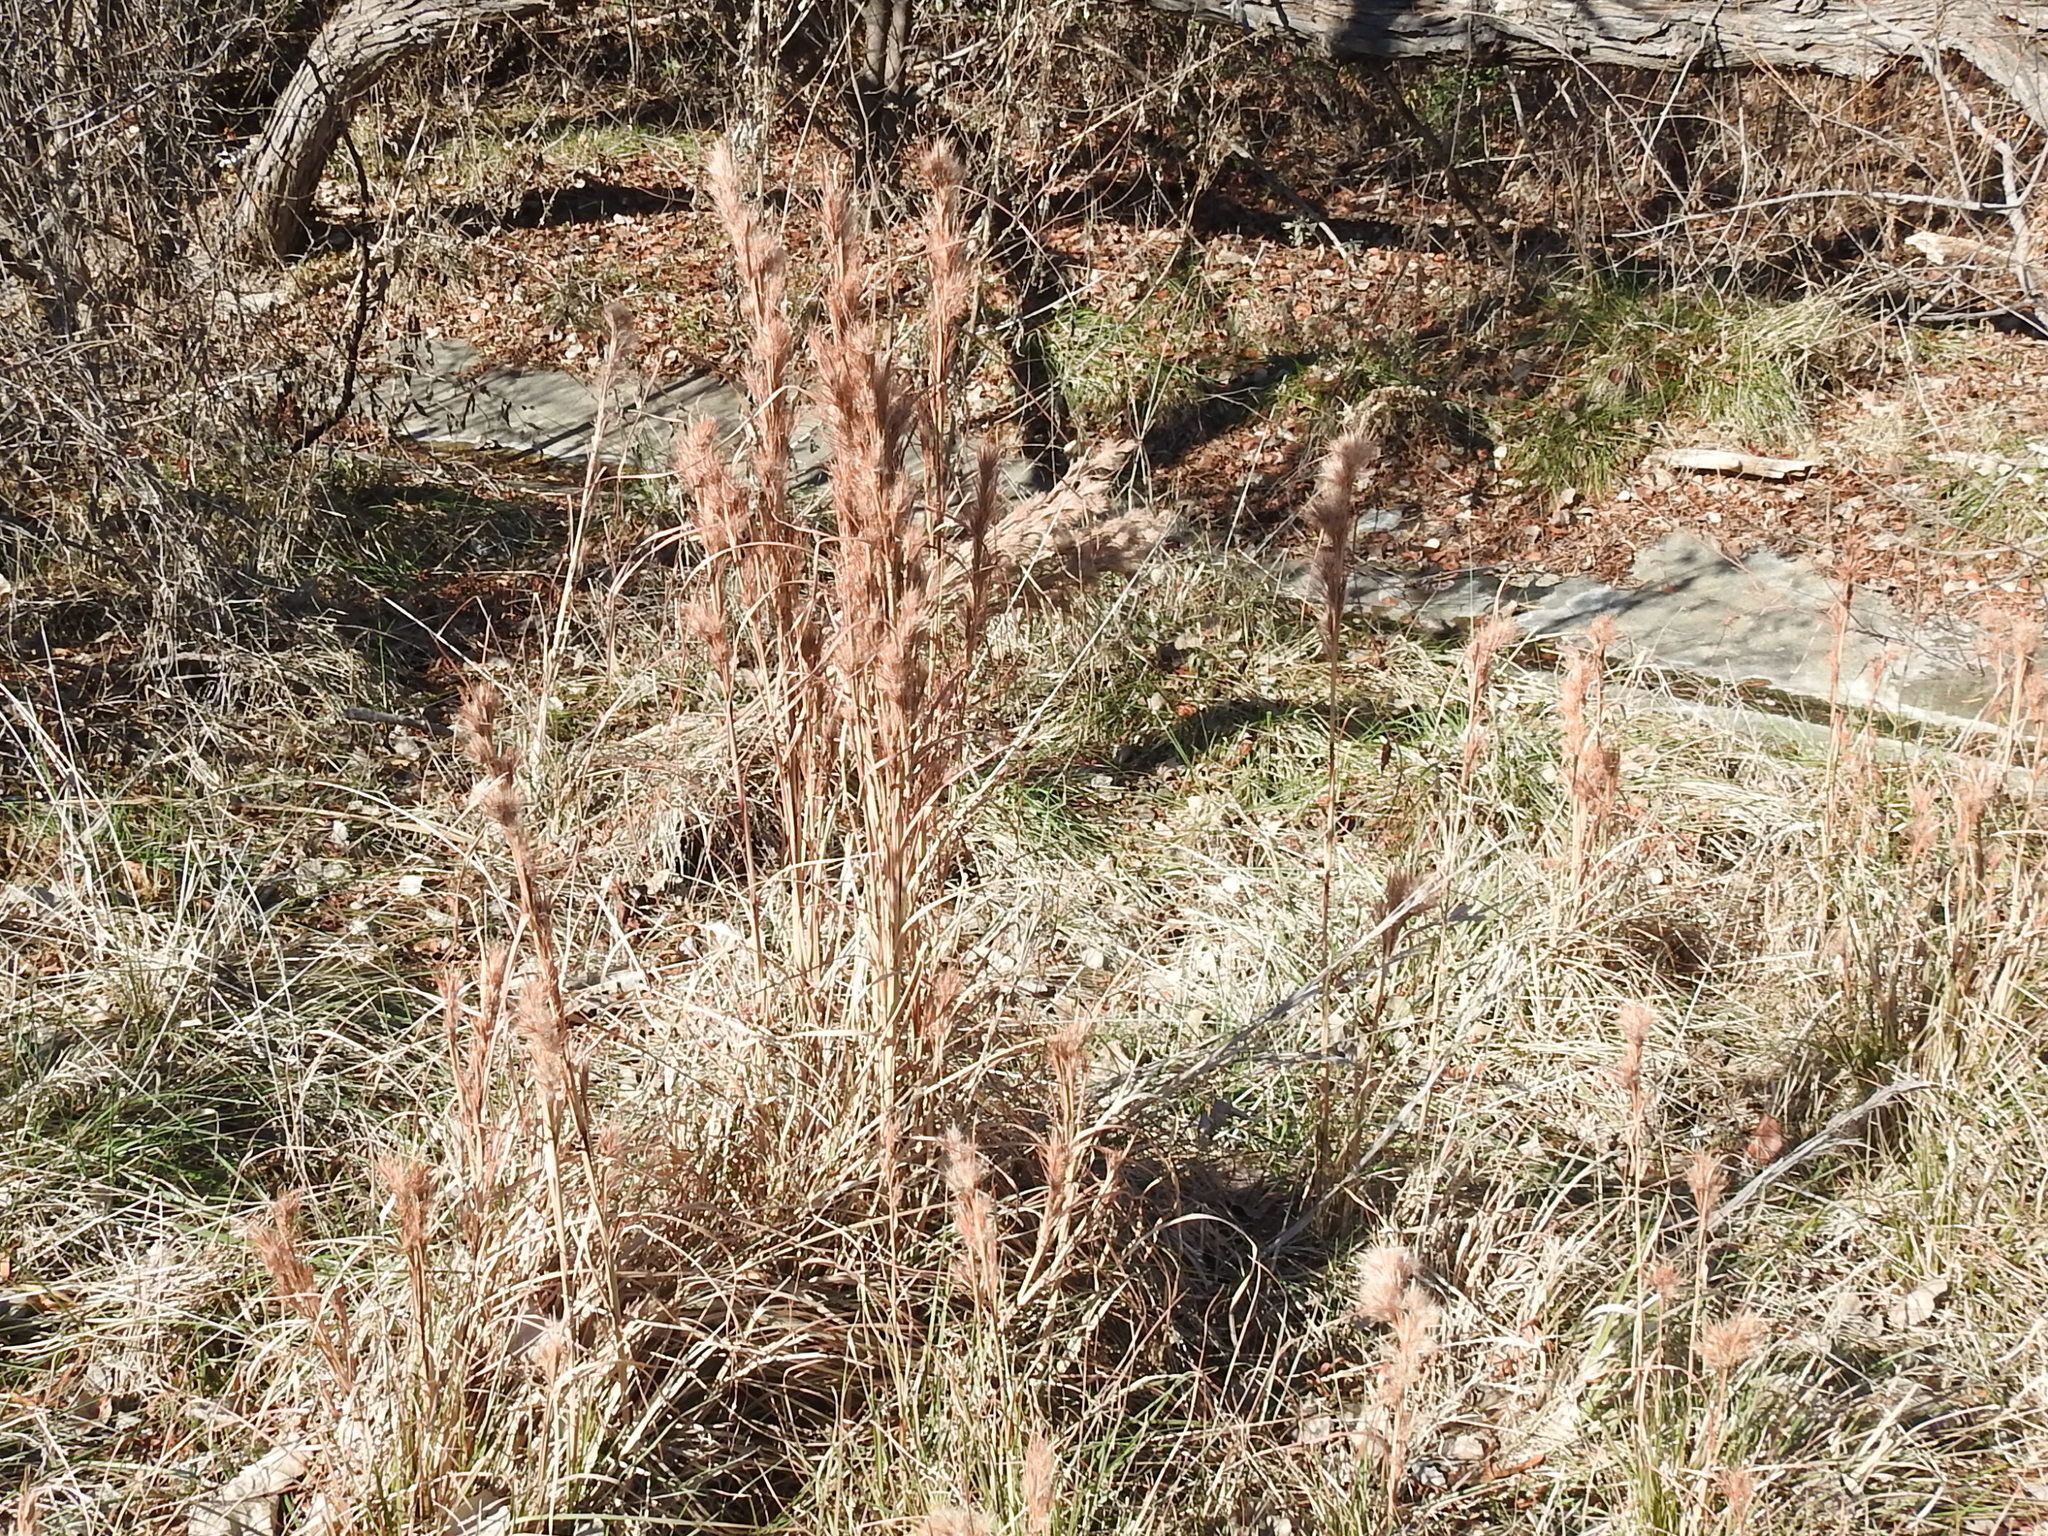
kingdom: Plantae
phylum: Tracheophyta
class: Liliopsida
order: Poales
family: Poaceae
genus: Andropogon
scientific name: Andropogon tenuispatheus
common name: Bushy bluestem
